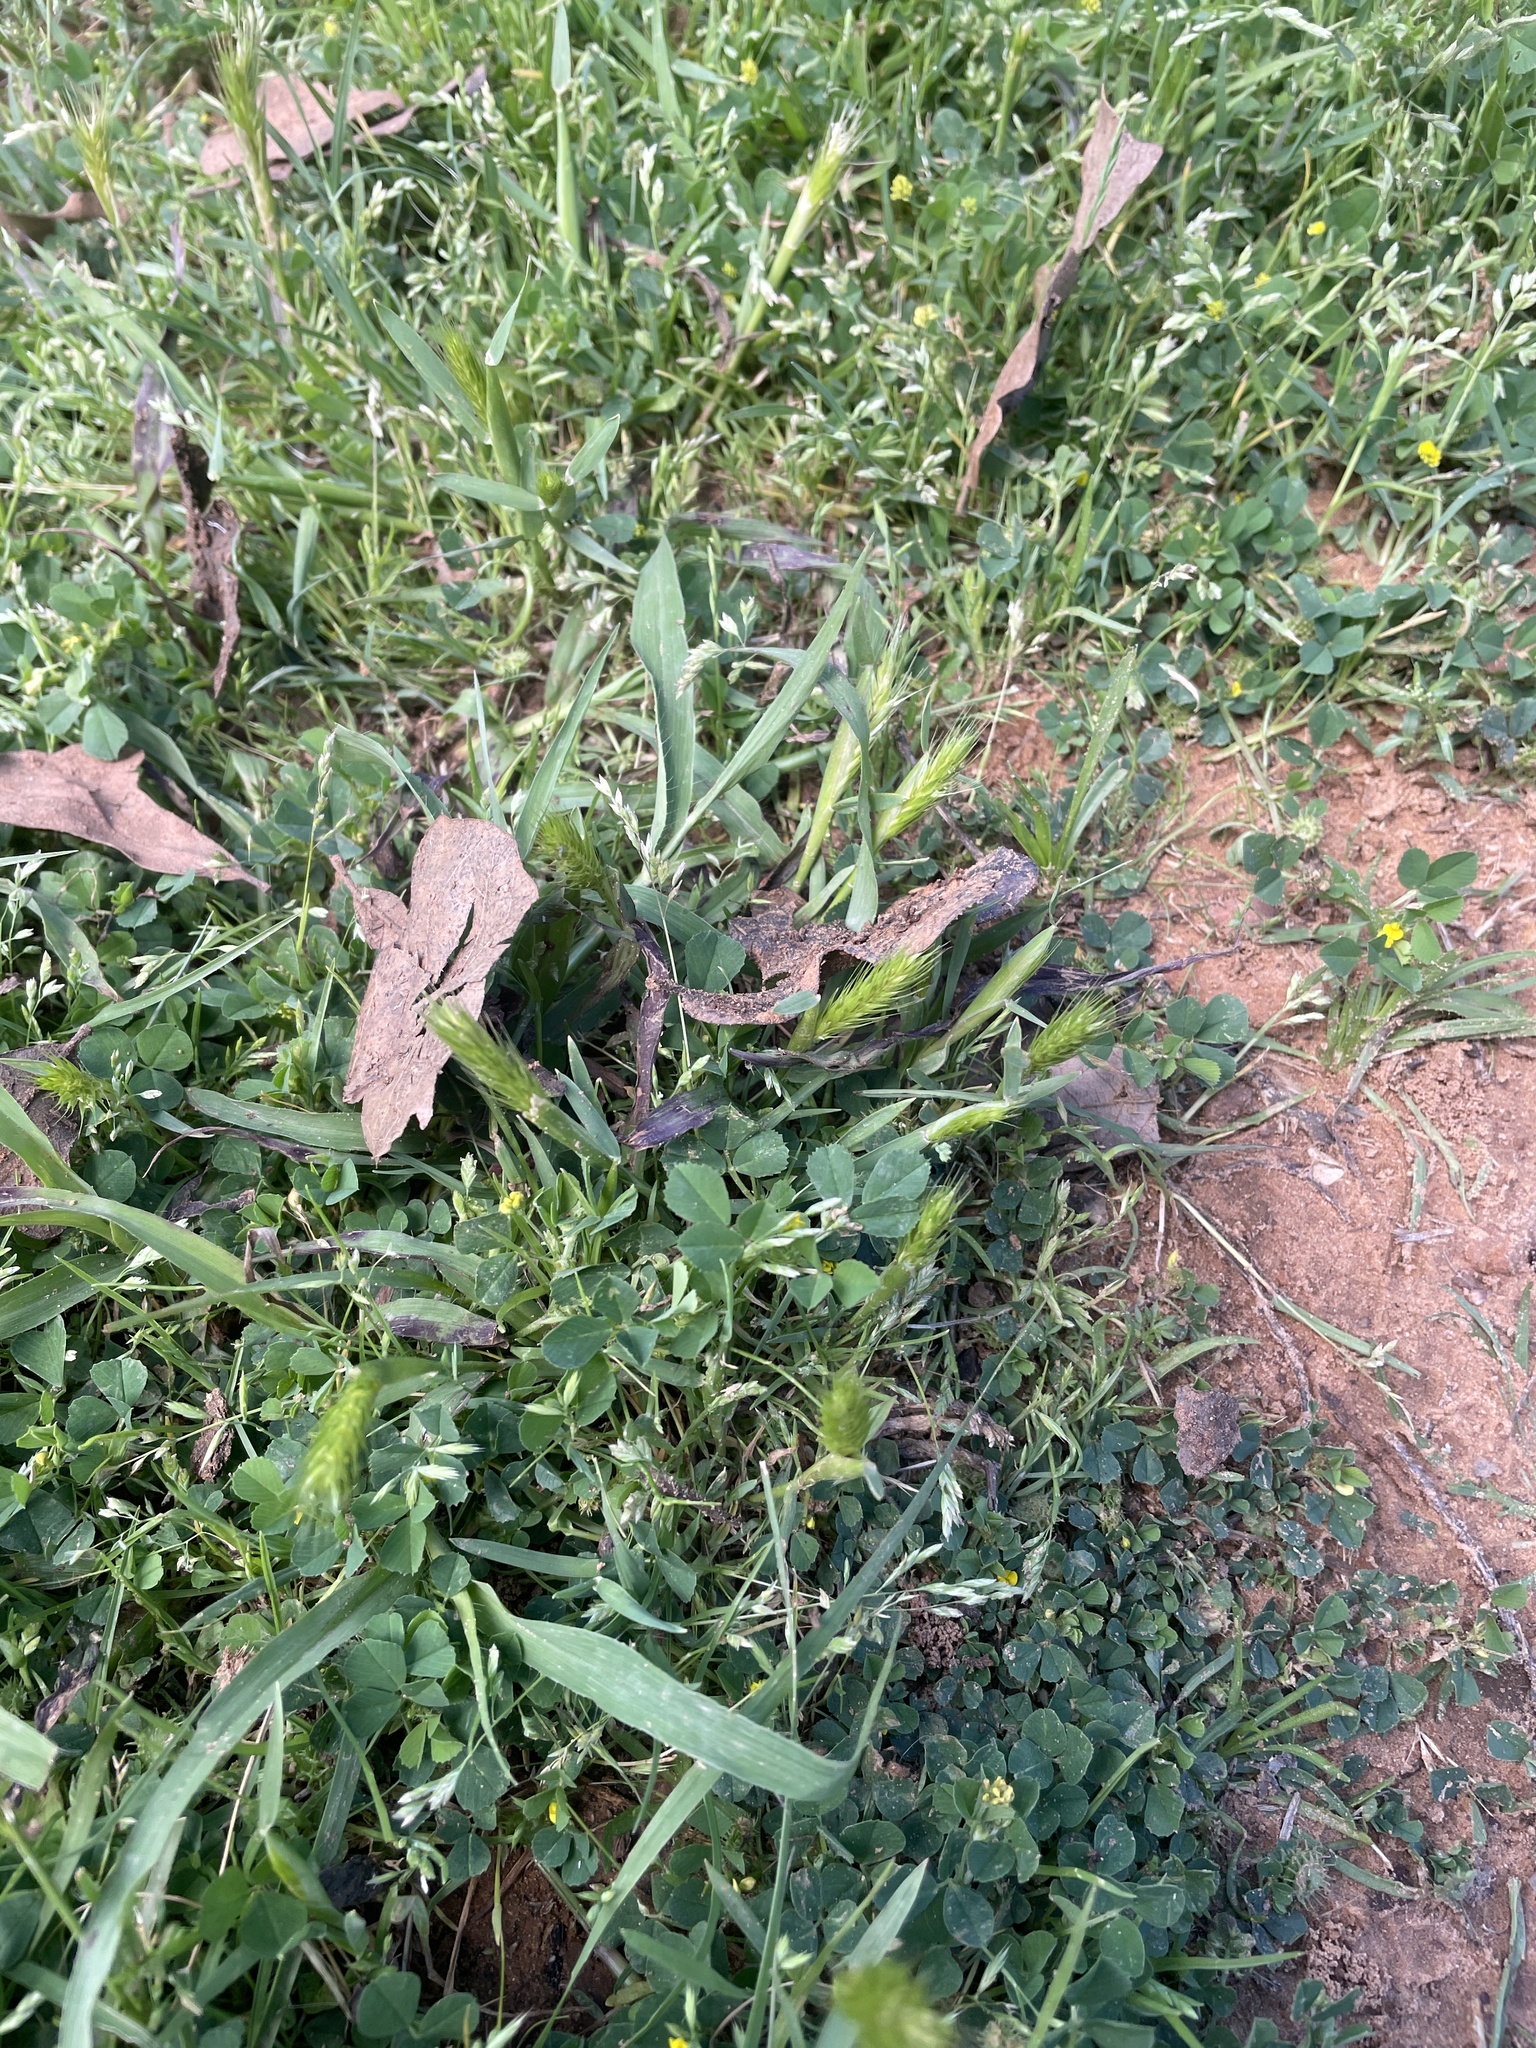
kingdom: Plantae
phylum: Tracheophyta
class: Liliopsida
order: Poales
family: Poaceae
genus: Hordeum
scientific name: Hordeum pusillum
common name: Little barley
